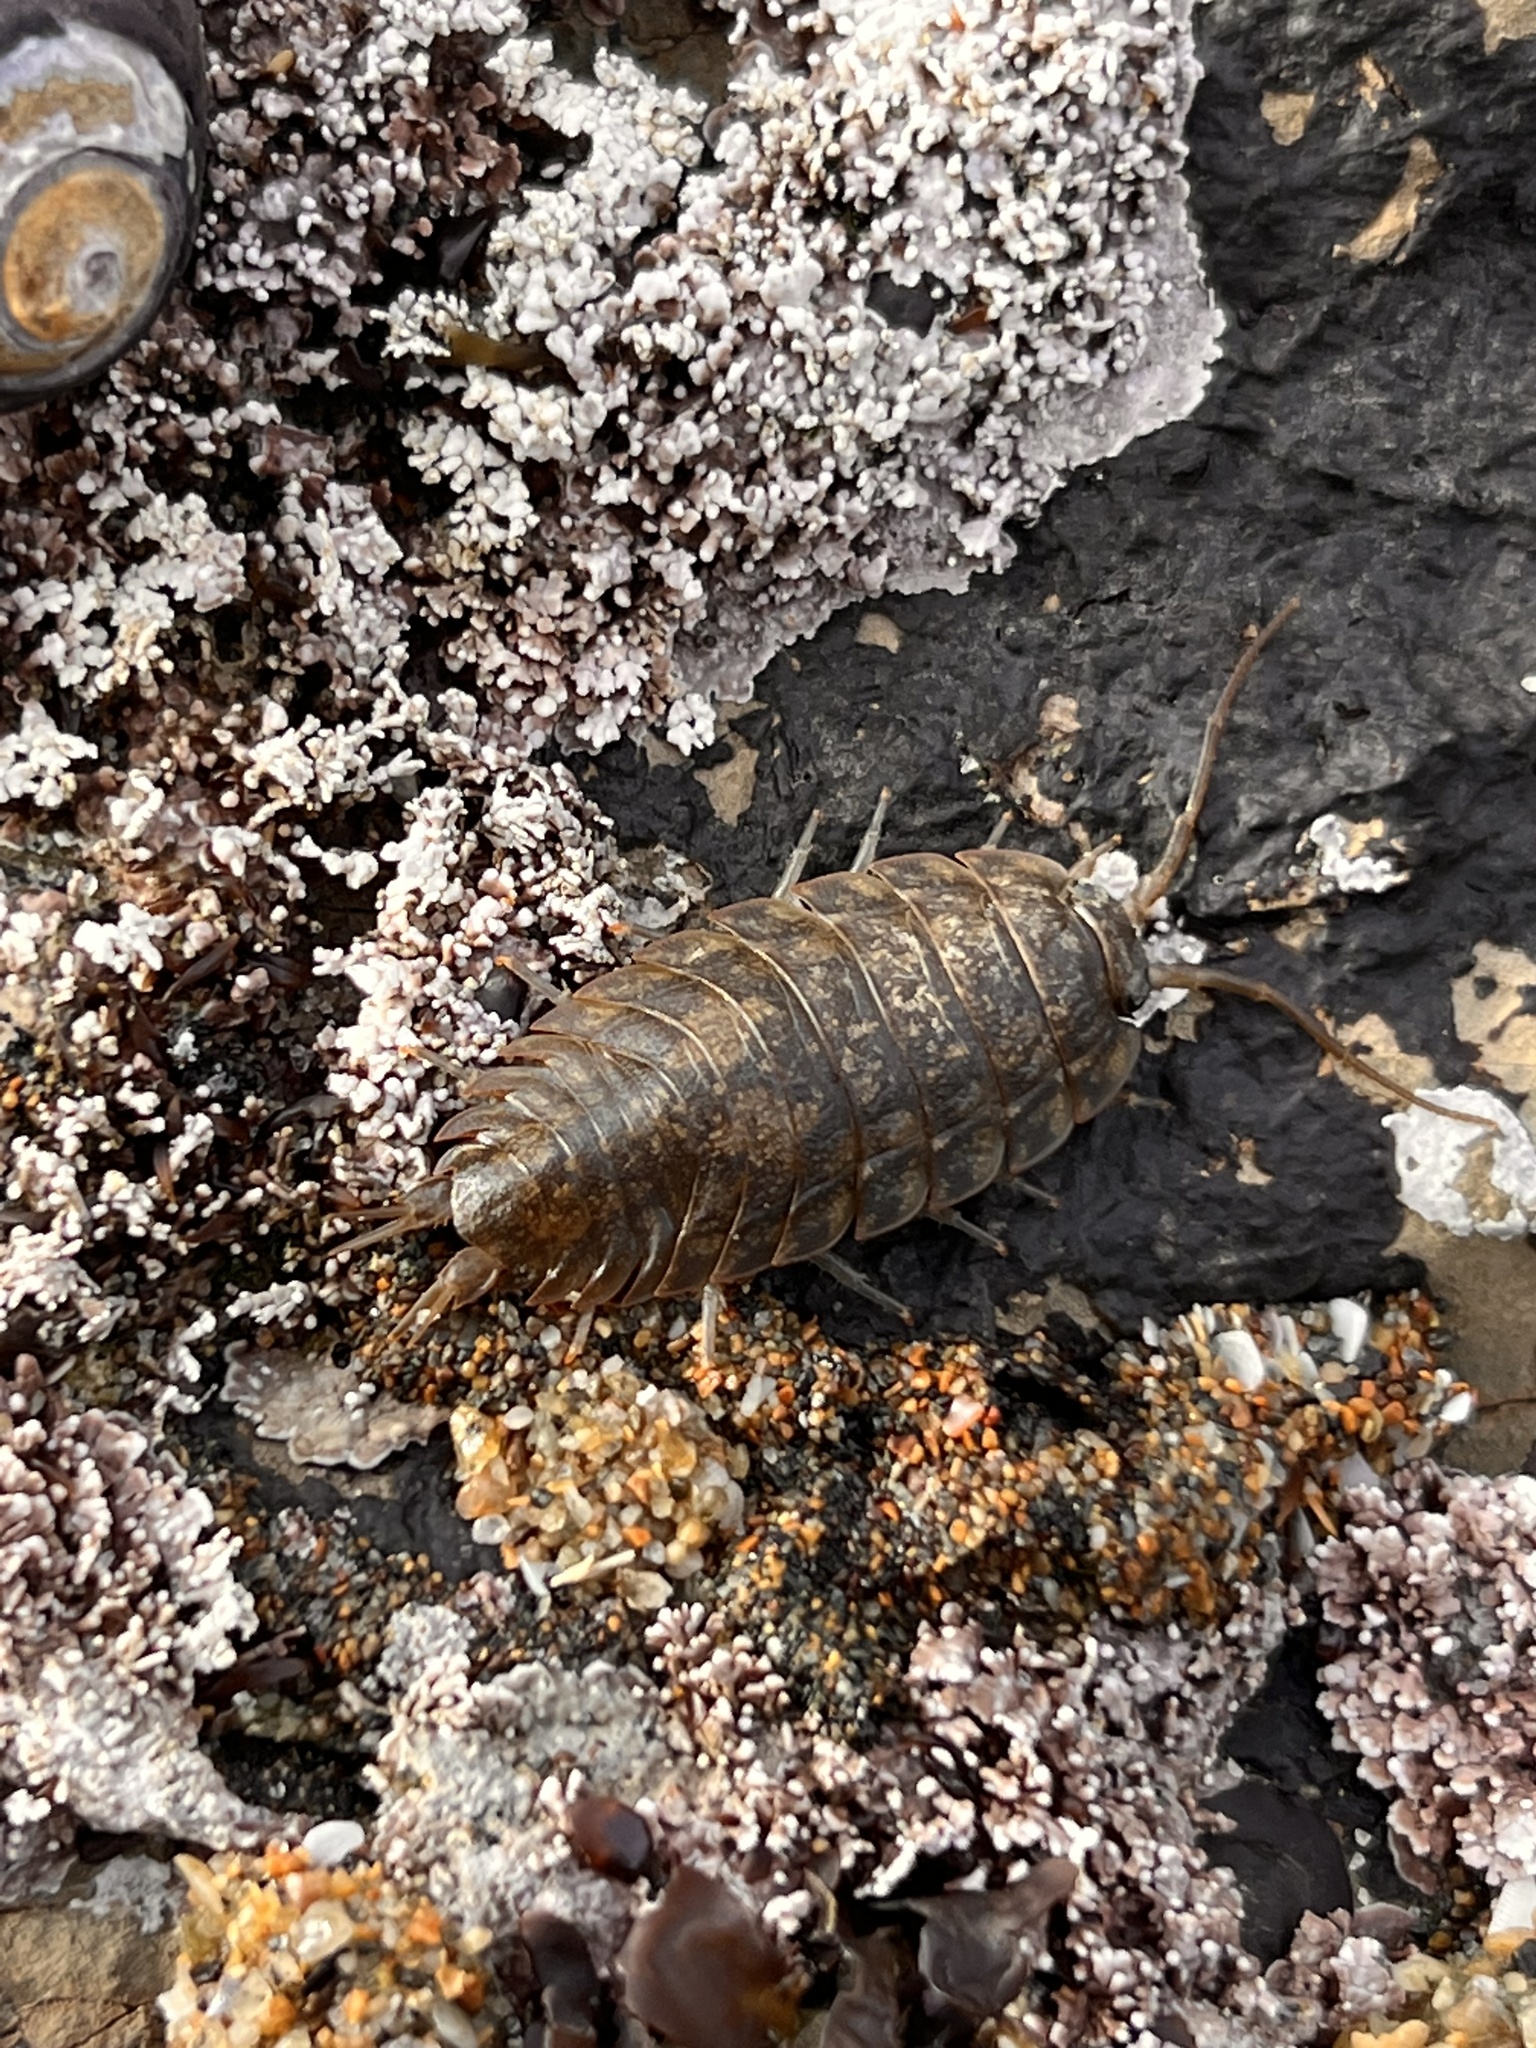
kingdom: Animalia
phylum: Arthropoda
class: Malacostraca
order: Isopoda
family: Ligiidae
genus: Ligia
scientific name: Ligia pallasii
